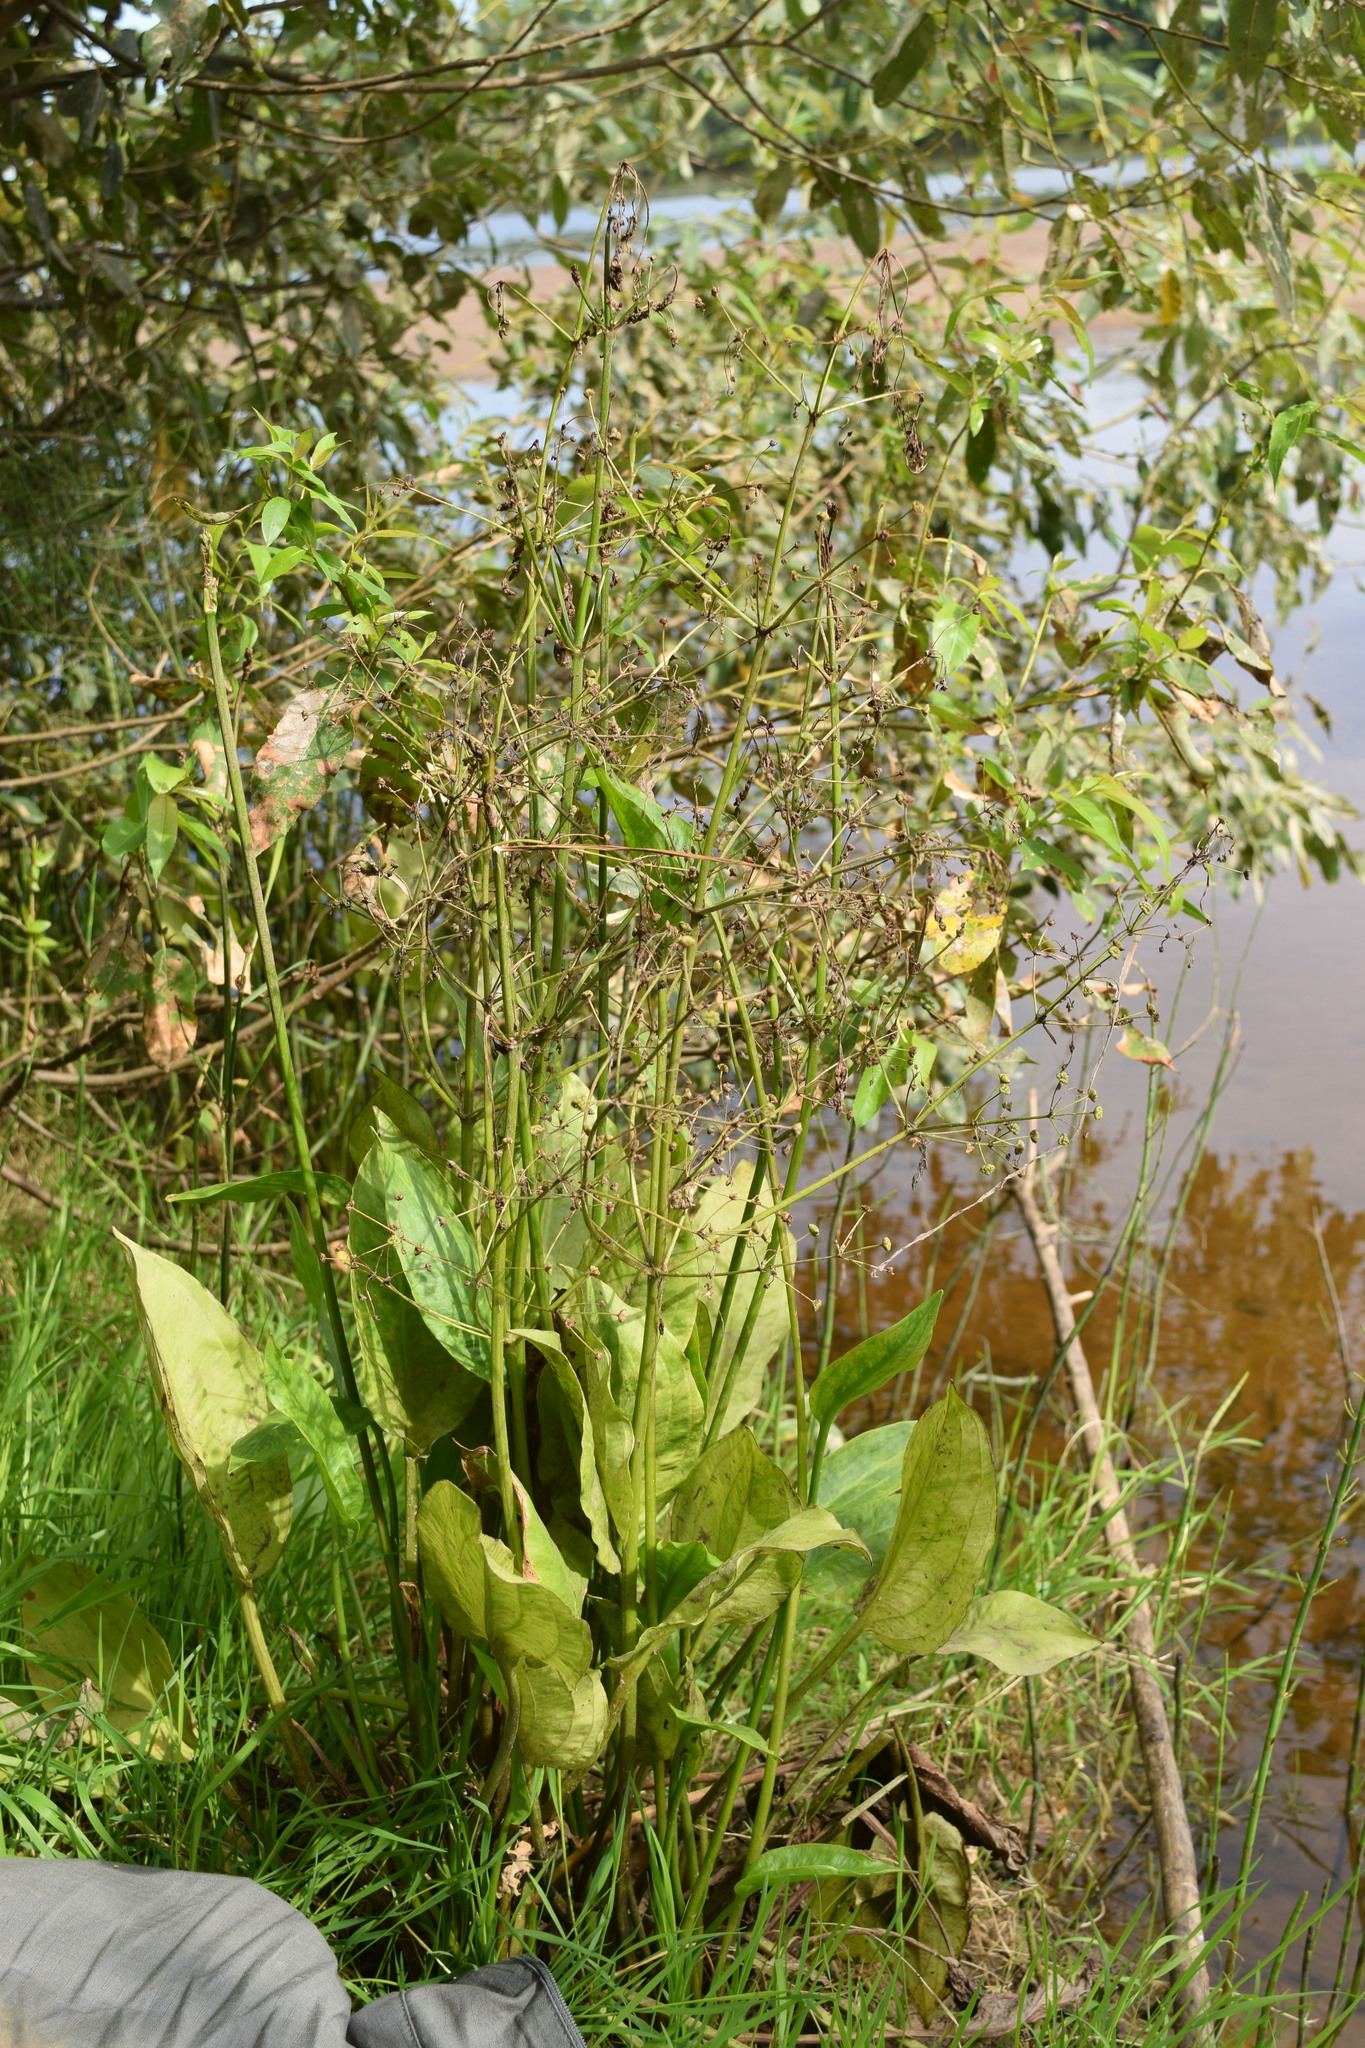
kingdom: Plantae
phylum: Tracheophyta
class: Liliopsida
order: Alismatales
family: Alismataceae
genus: Alisma
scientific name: Alisma plantago-aquatica
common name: Water-plantain
